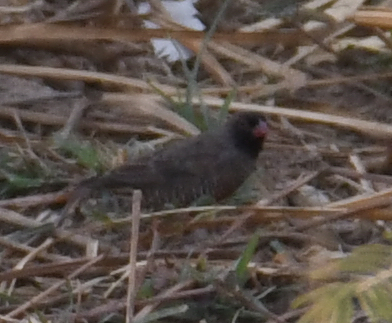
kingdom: Animalia
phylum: Chordata
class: Aves
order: Passeriformes
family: Estrildidae
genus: Ortygospiza
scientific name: Ortygospiza atricollis
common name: Quailfinch
